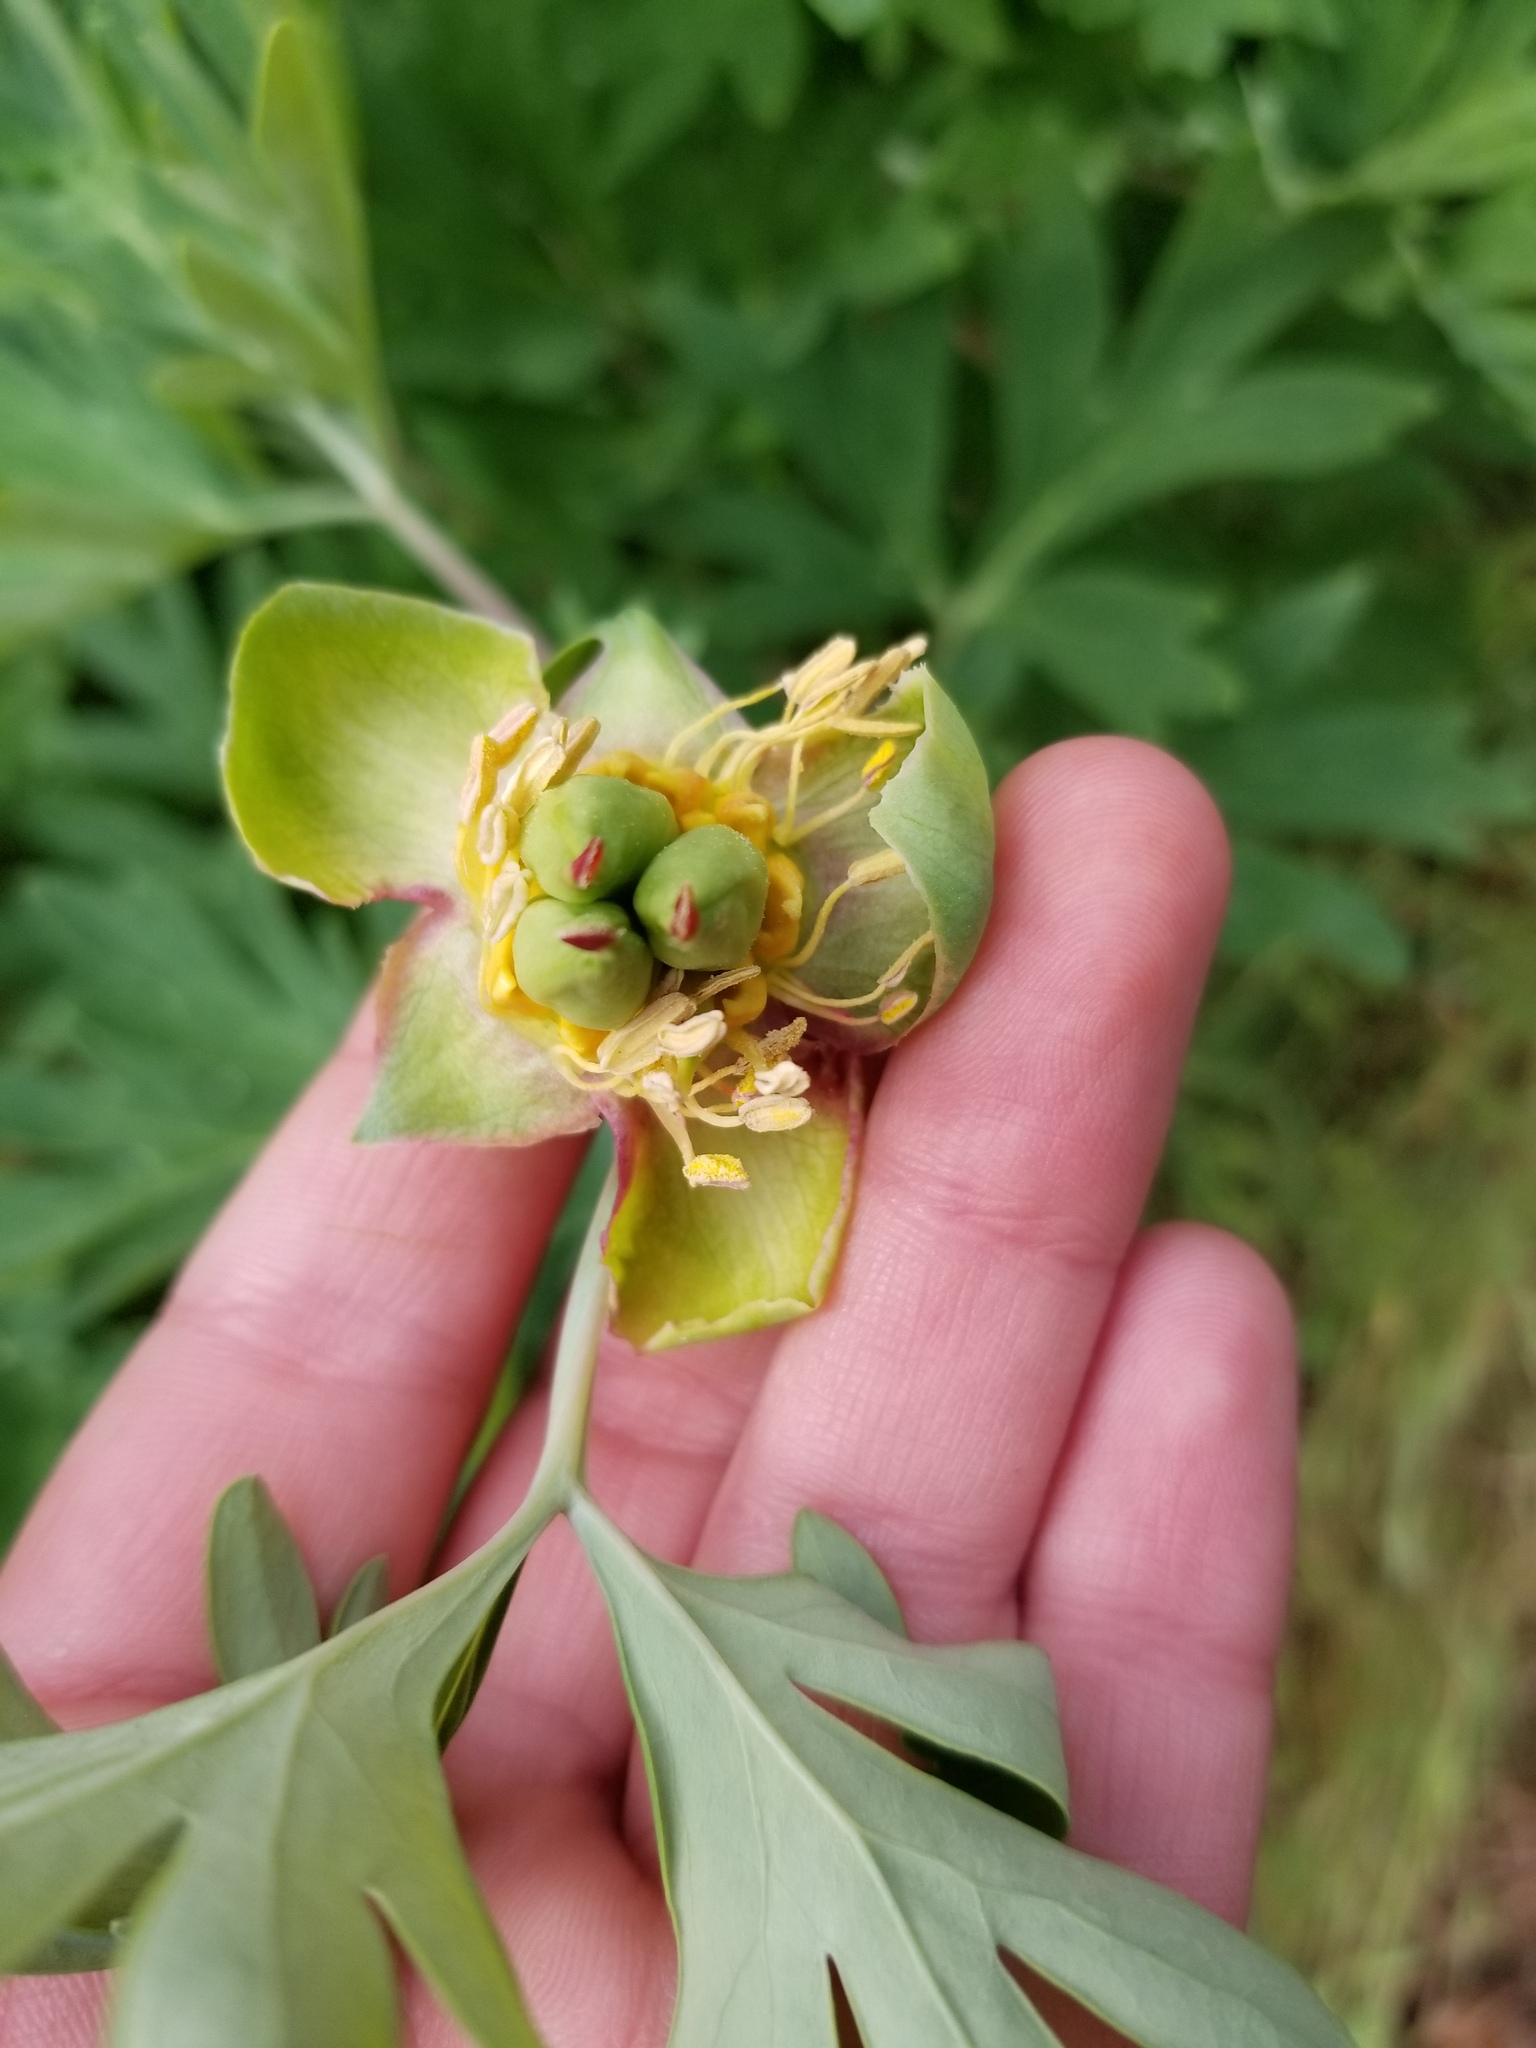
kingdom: Plantae
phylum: Tracheophyta
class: Magnoliopsida
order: Saxifragales
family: Paeoniaceae
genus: Paeonia
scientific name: Paeonia californica
